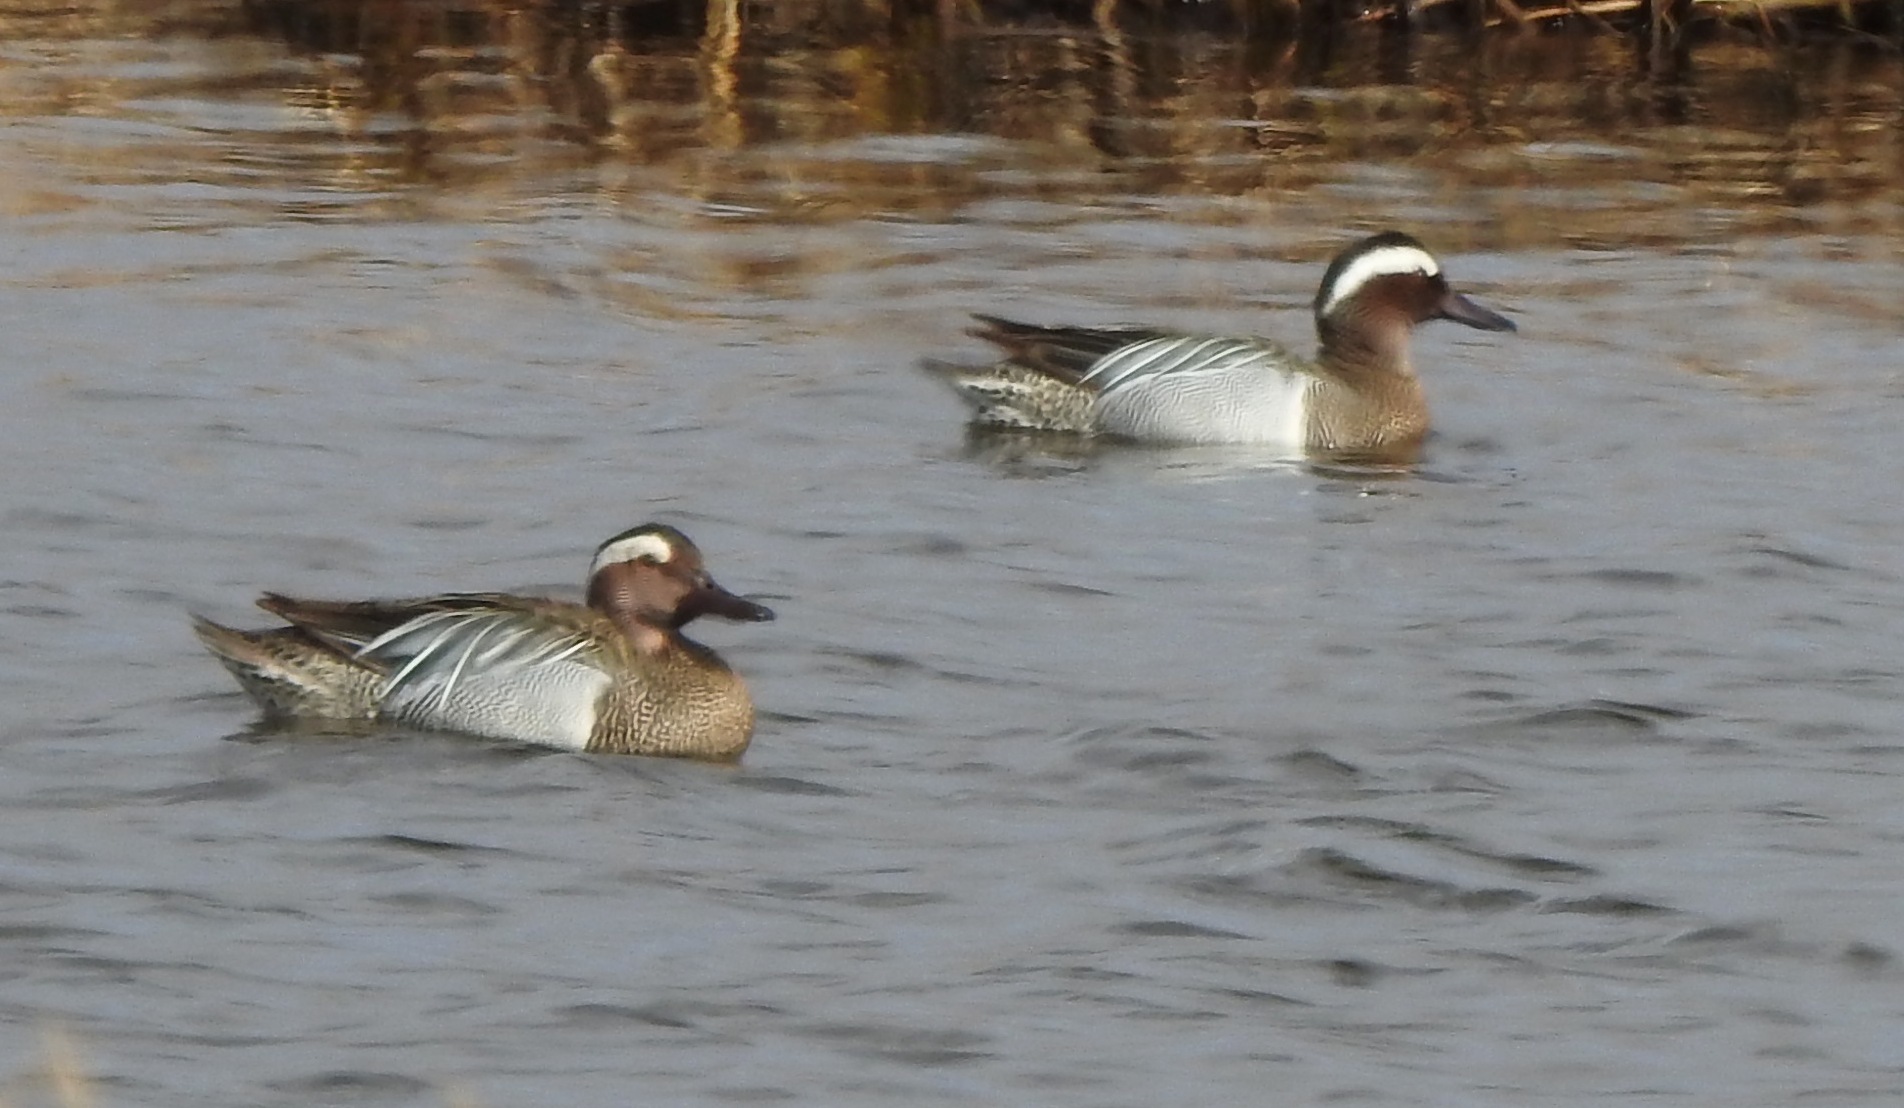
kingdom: Animalia
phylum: Chordata
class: Aves
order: Anseriformes
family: Anatidae
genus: Spatula
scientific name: Spatula querquedula
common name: Garganey
